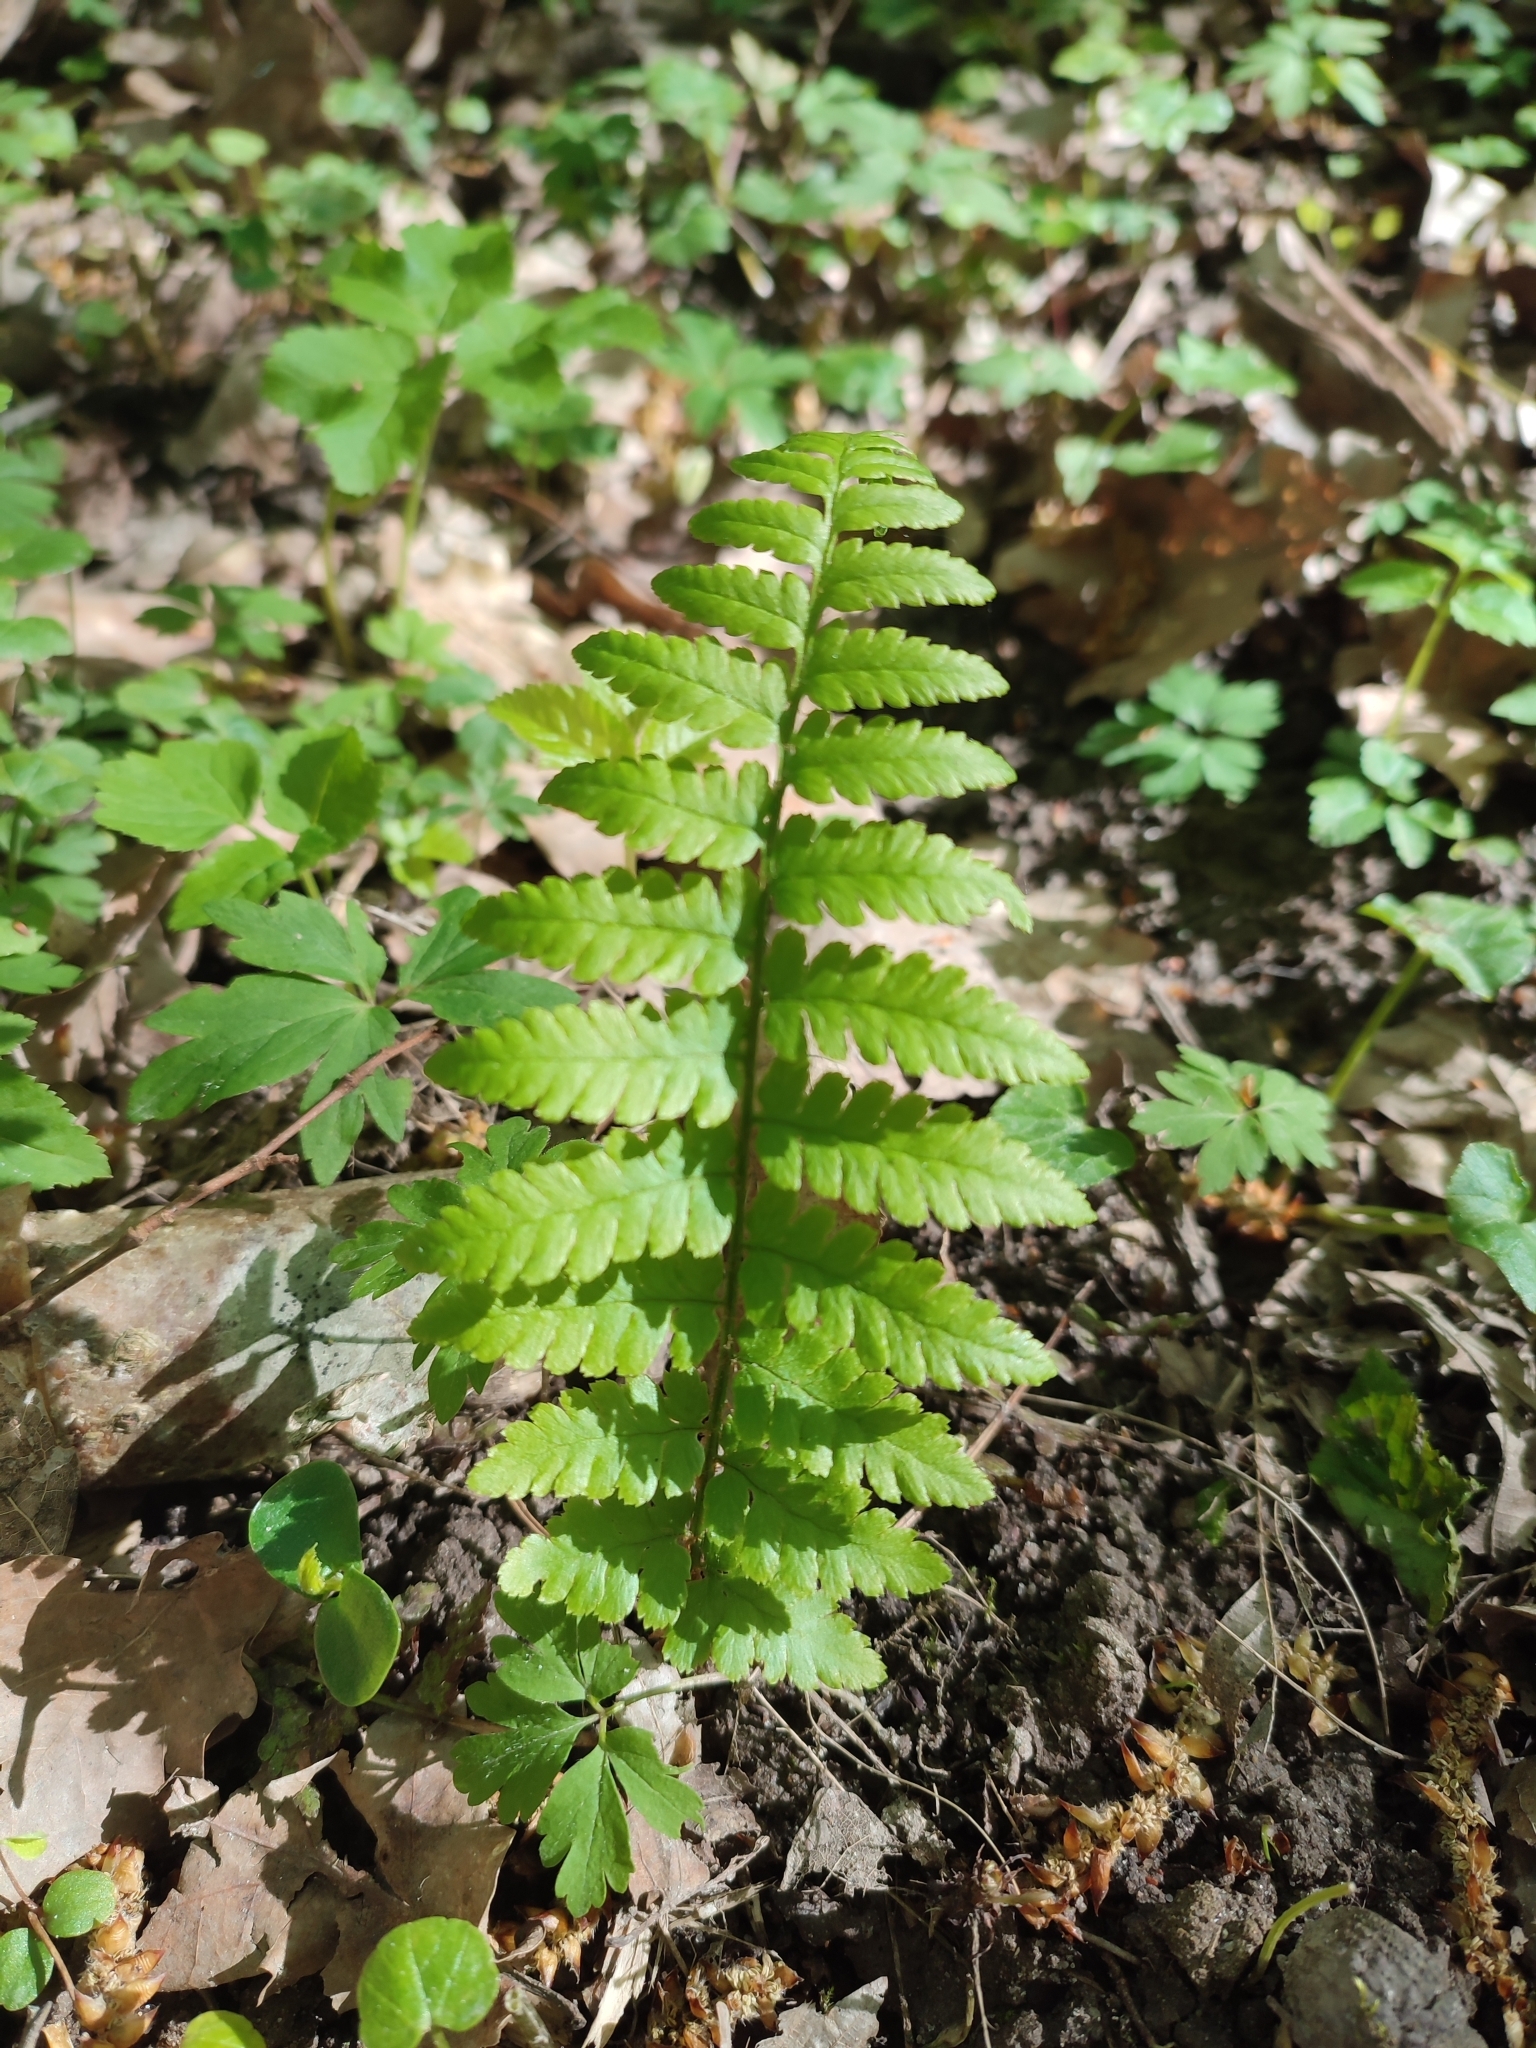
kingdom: Plantae
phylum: Tracheophyta
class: Polypodiopsida
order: Polypodiales
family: Dryopteridaceae
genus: Dryopteris
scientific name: Dryopteris filix-mas
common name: Male fern
